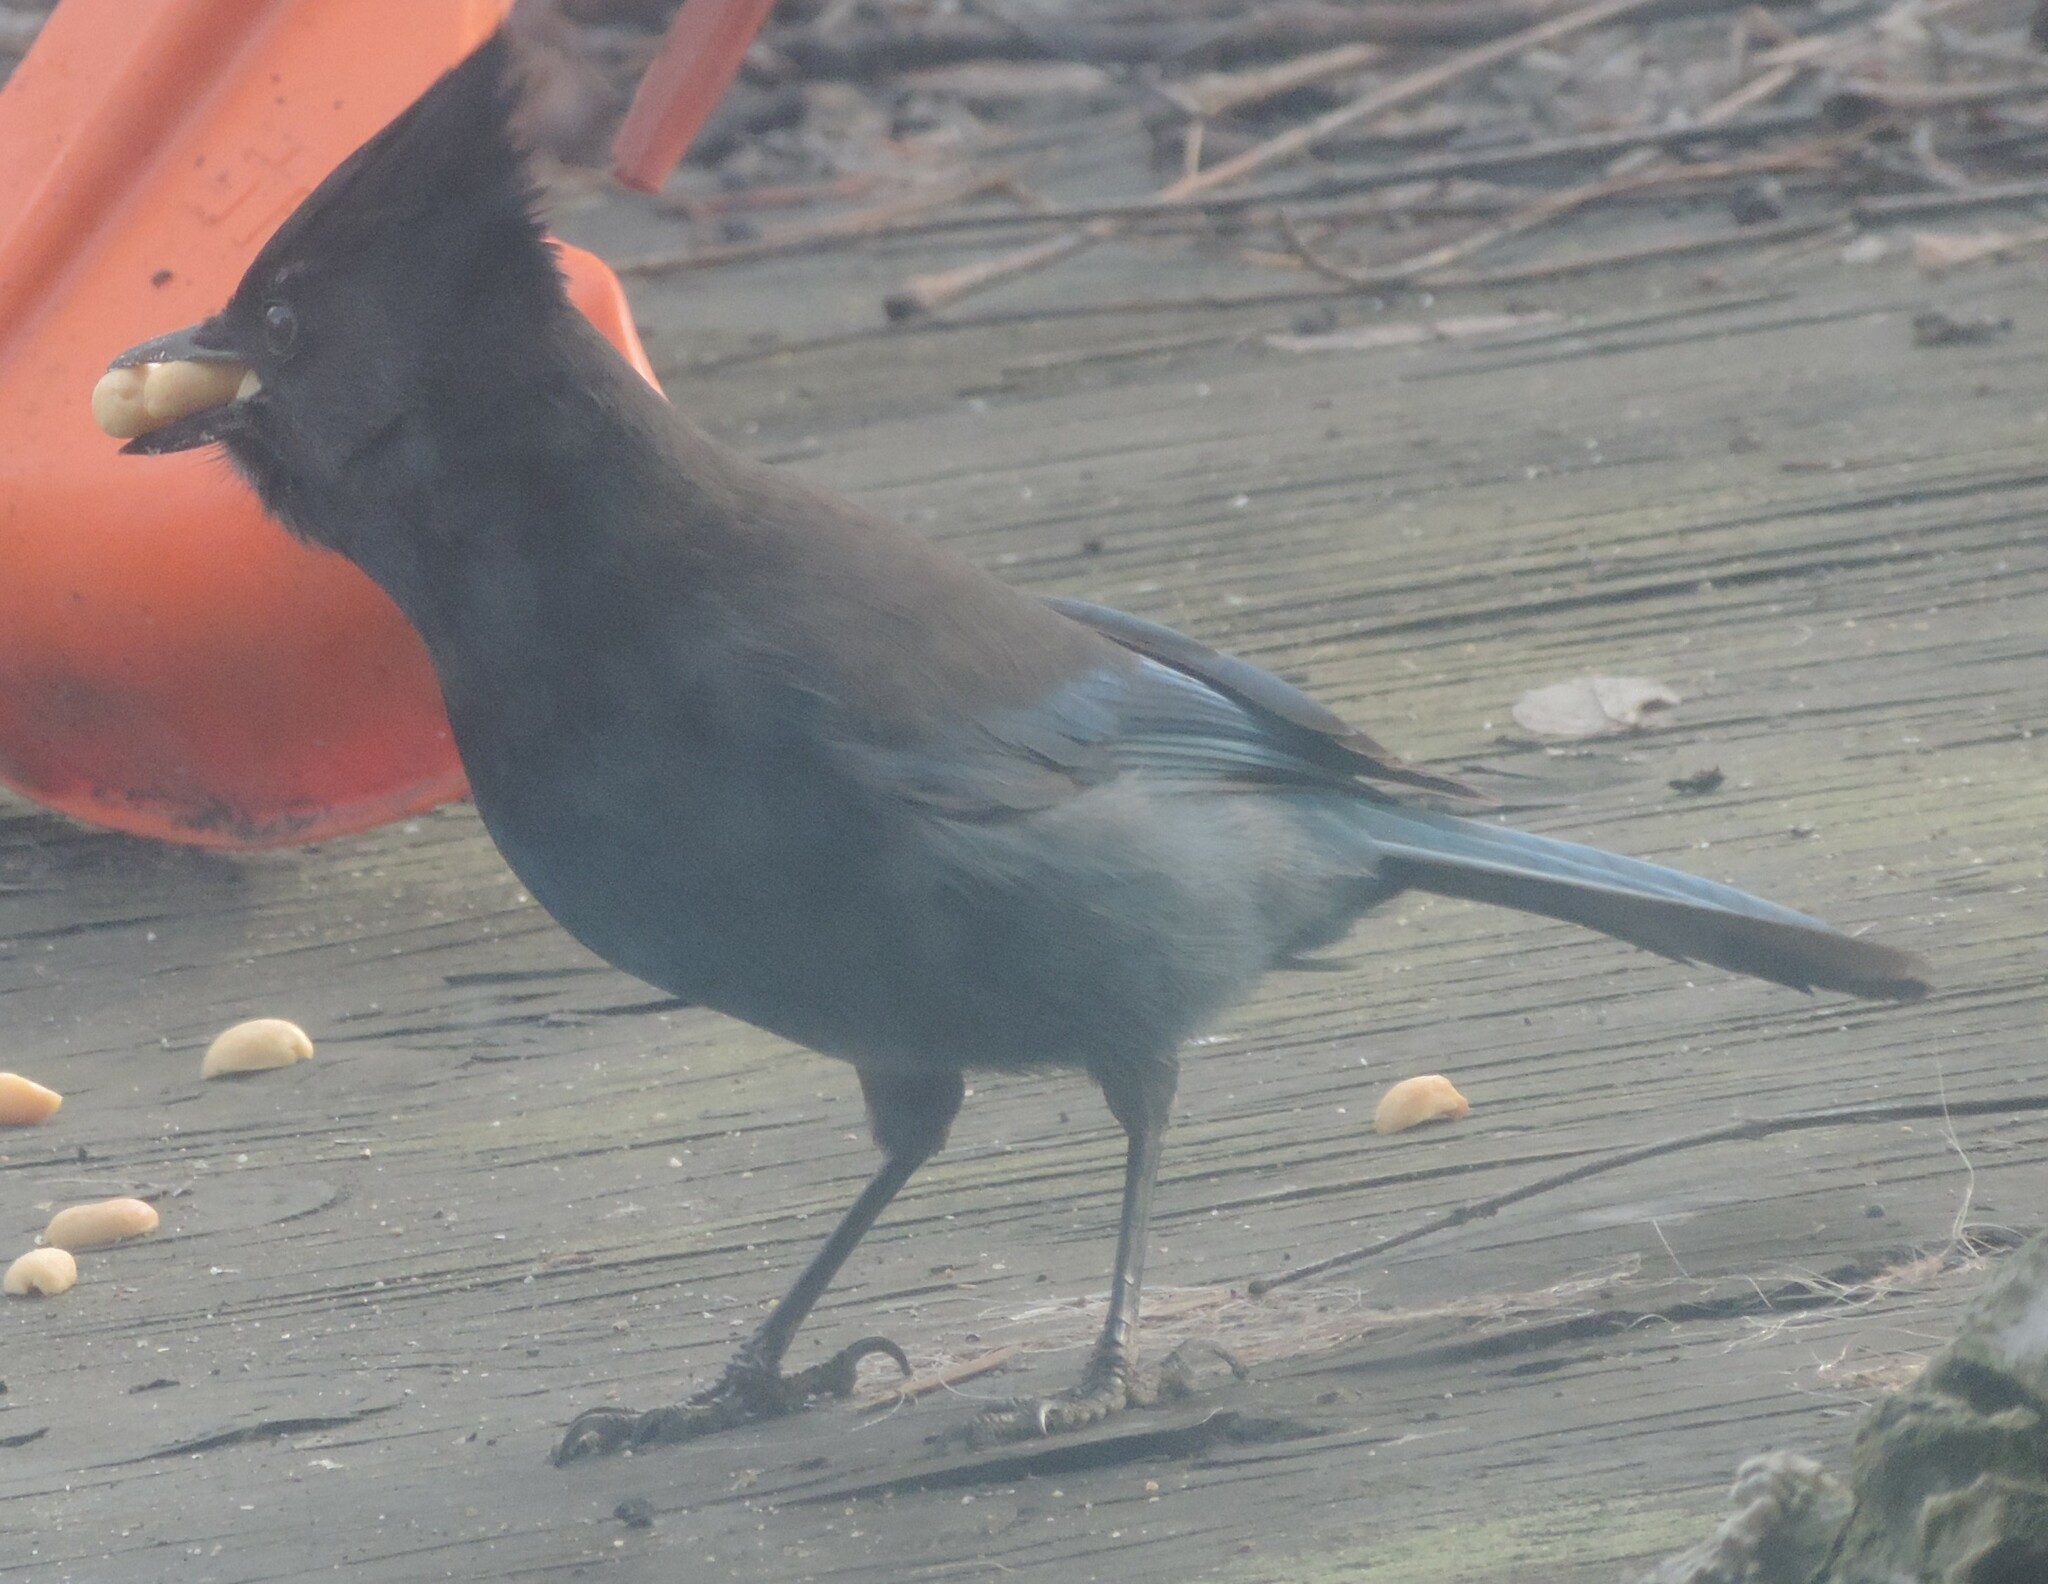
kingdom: Animalia
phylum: Chordata
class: Aves
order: Passeriformes
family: Corvidae
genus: Cyanocitta
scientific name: Cyanocitta stelleri
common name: Steller's jay
